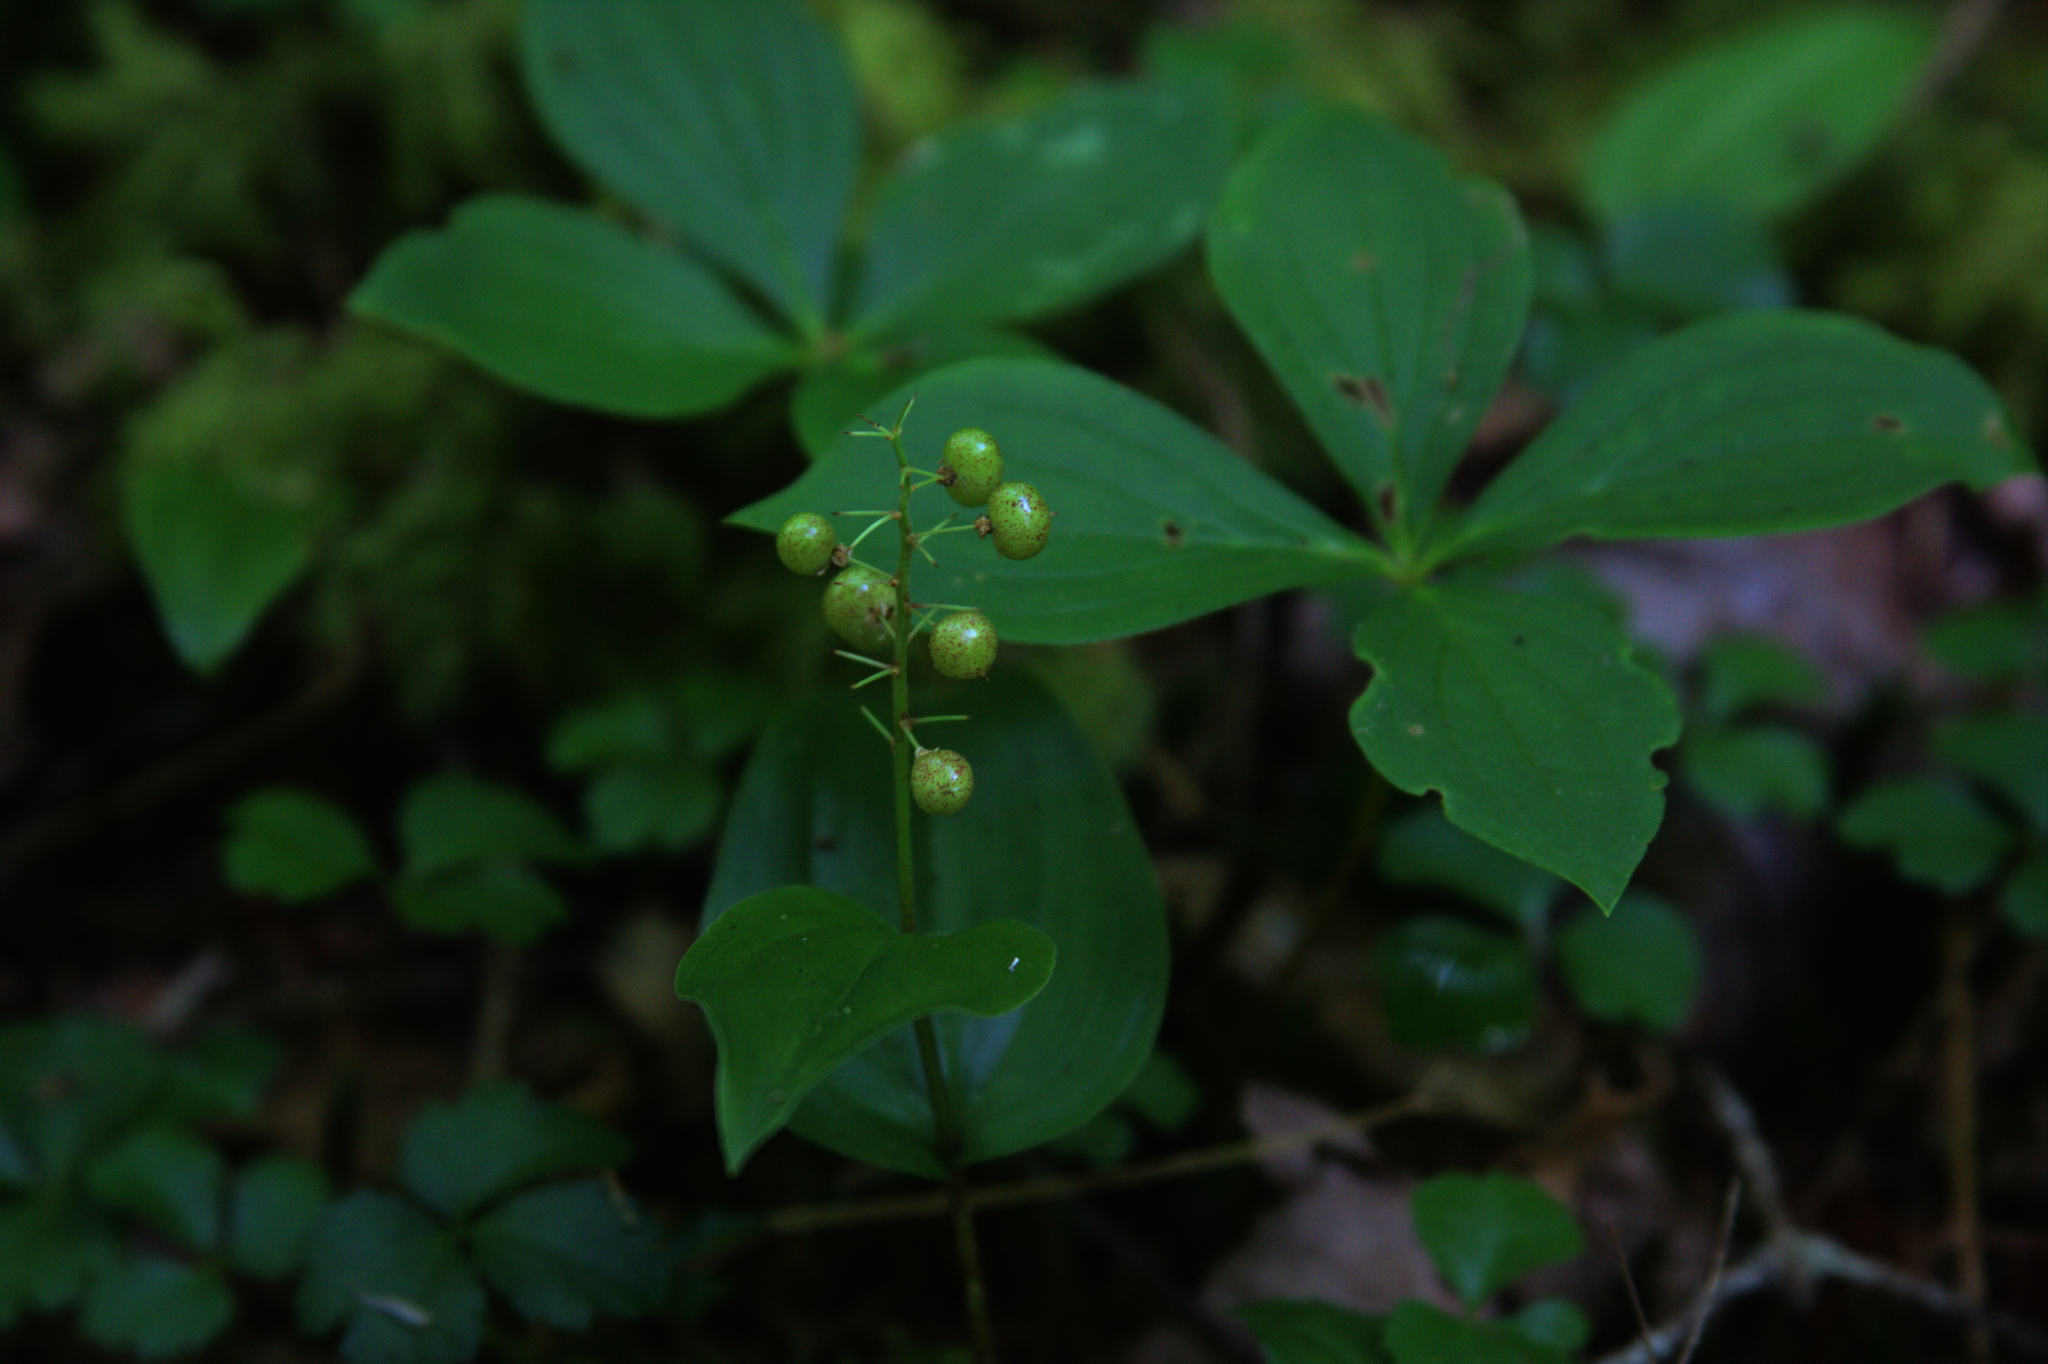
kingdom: Plantae
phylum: Tracheophyta
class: Liliopsida
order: Asparagales
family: Asparagaceae
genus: Maianthemum
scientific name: Maianthemum canadense
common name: False lily-of-the-valley
